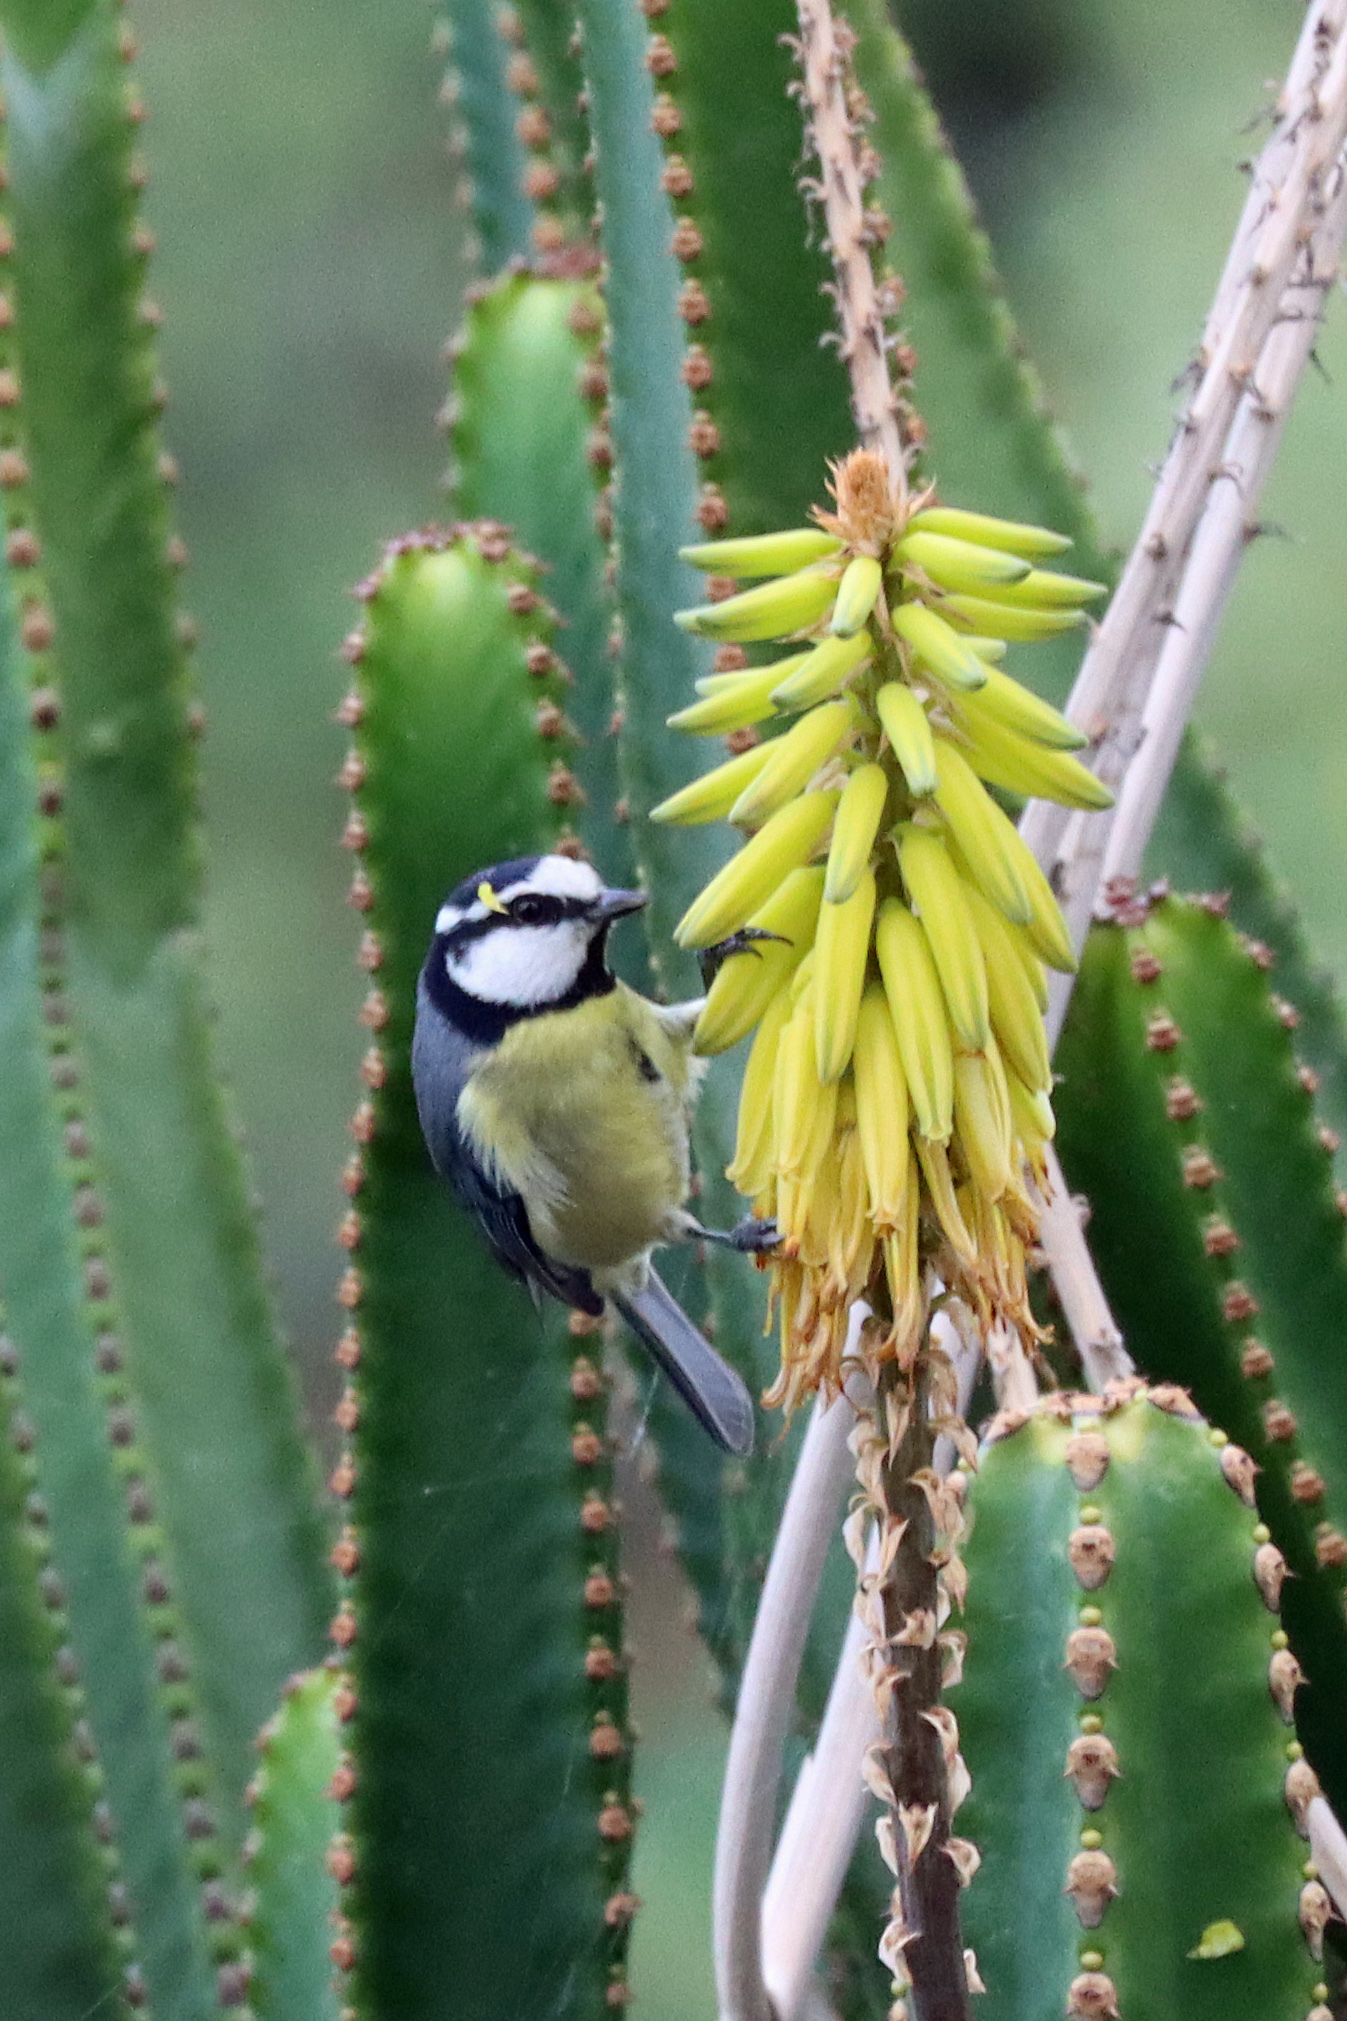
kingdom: Animalia
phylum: Chordata
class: Aves
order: Passeriformes
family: Paridae
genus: Cyanistes
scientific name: Cyanistes teneriffae
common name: African blue tit
